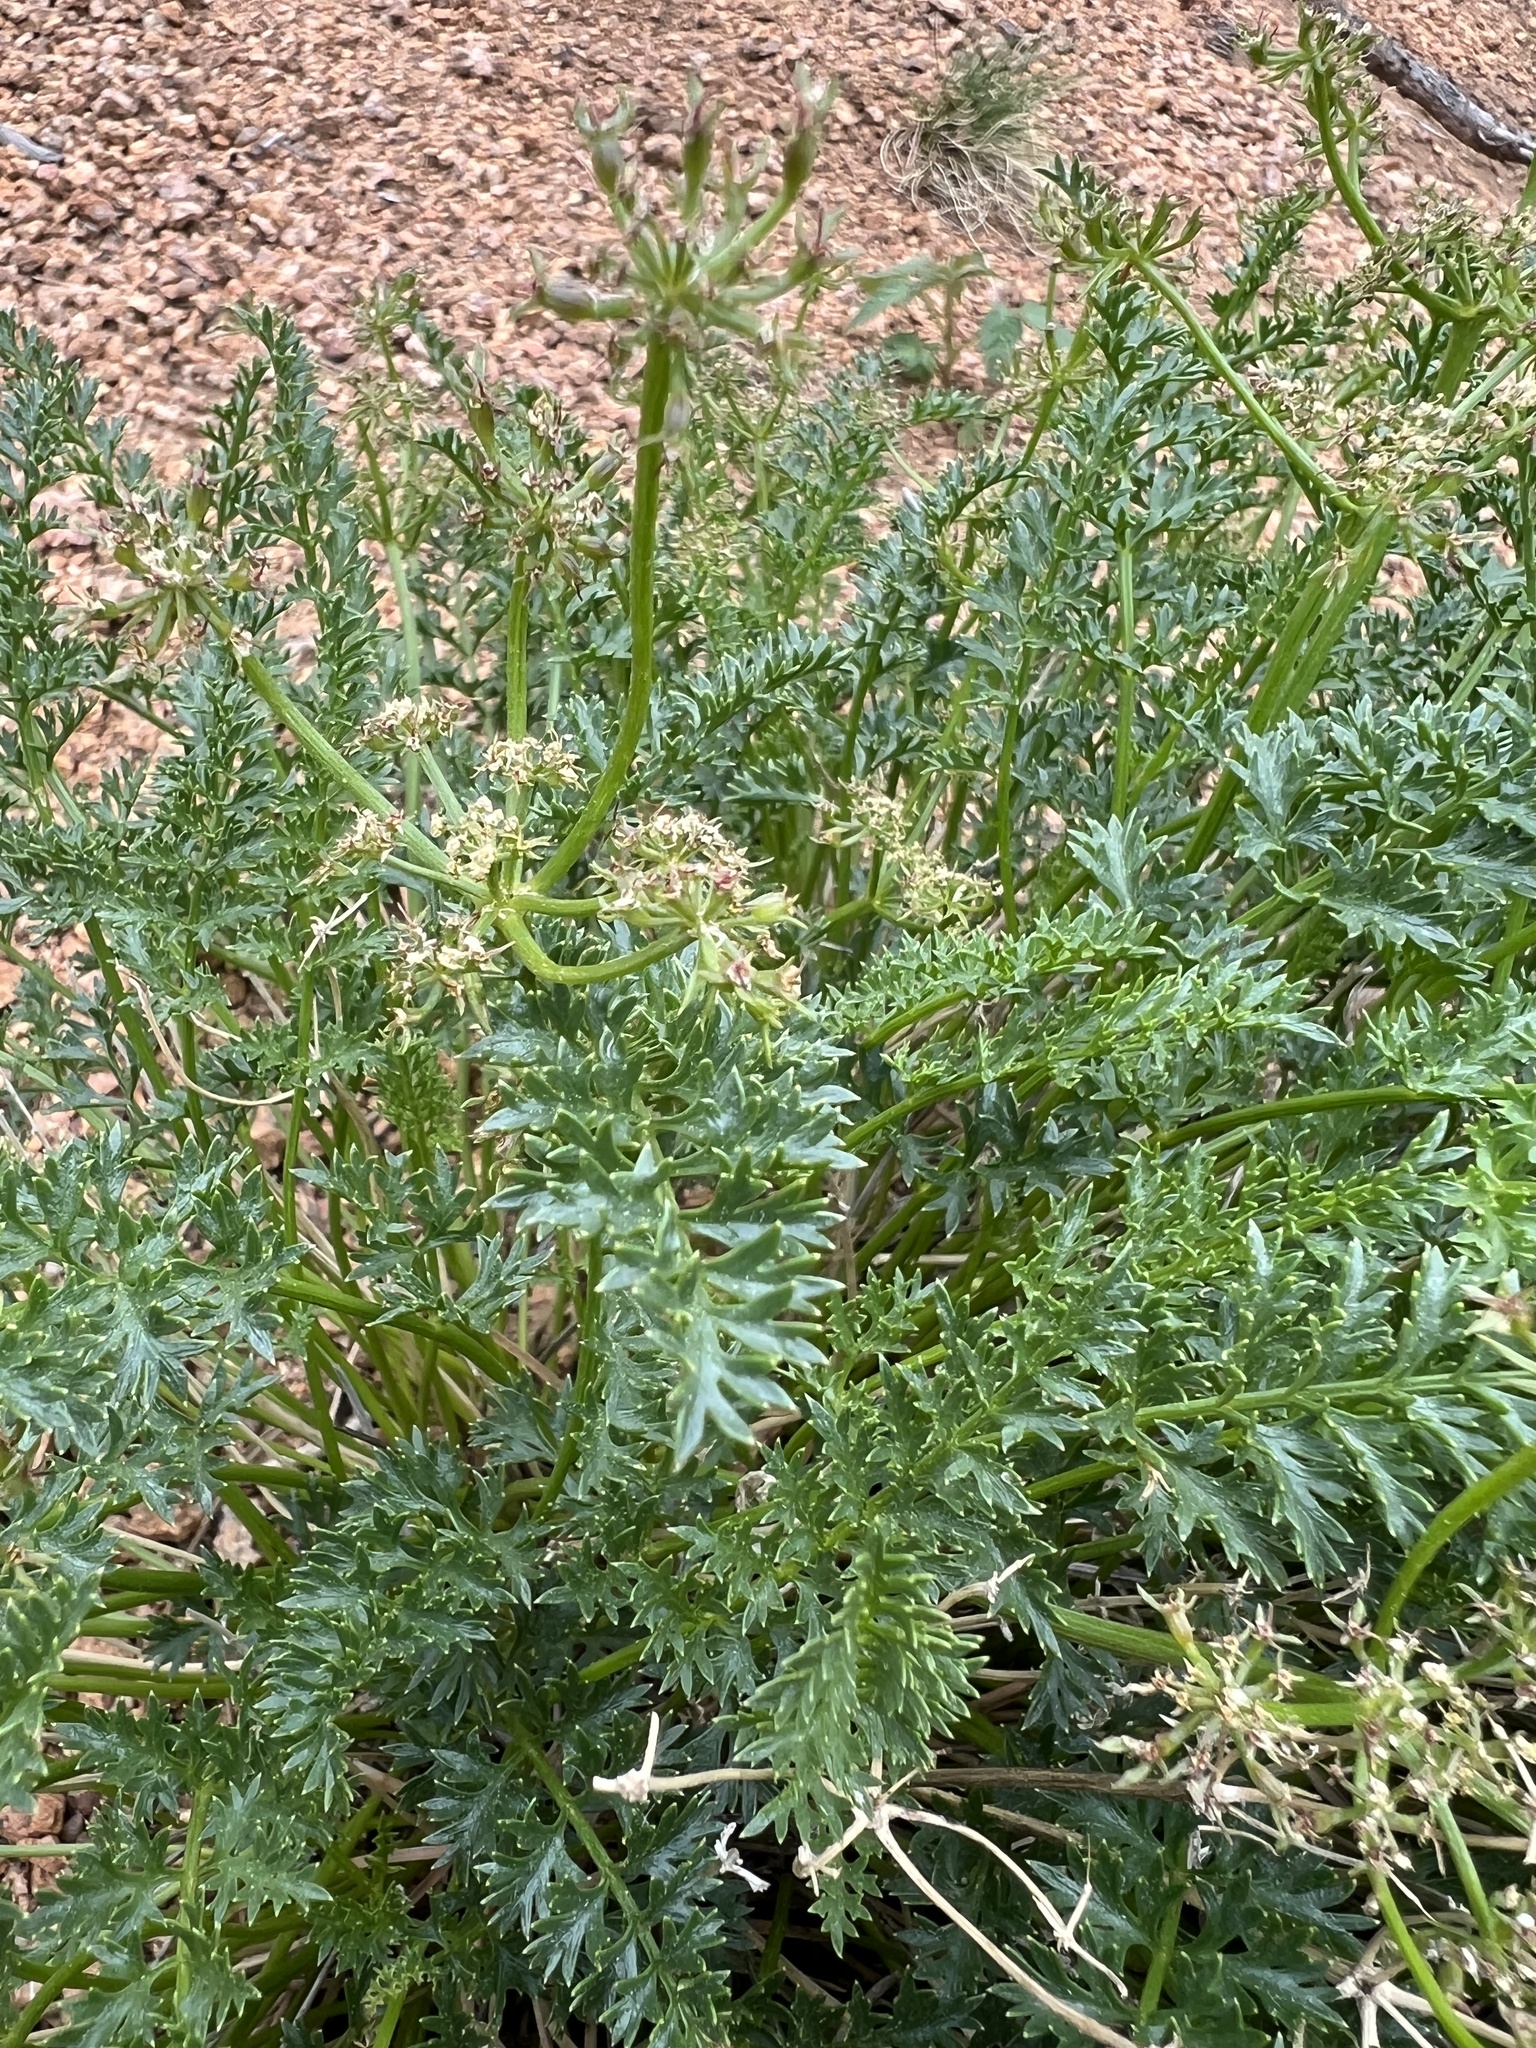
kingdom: Plantae
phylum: Tracheophyta
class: Magnoliopsida
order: Apiales
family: Apiaceae
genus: Cymopterus
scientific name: Cymopterus anisatus
